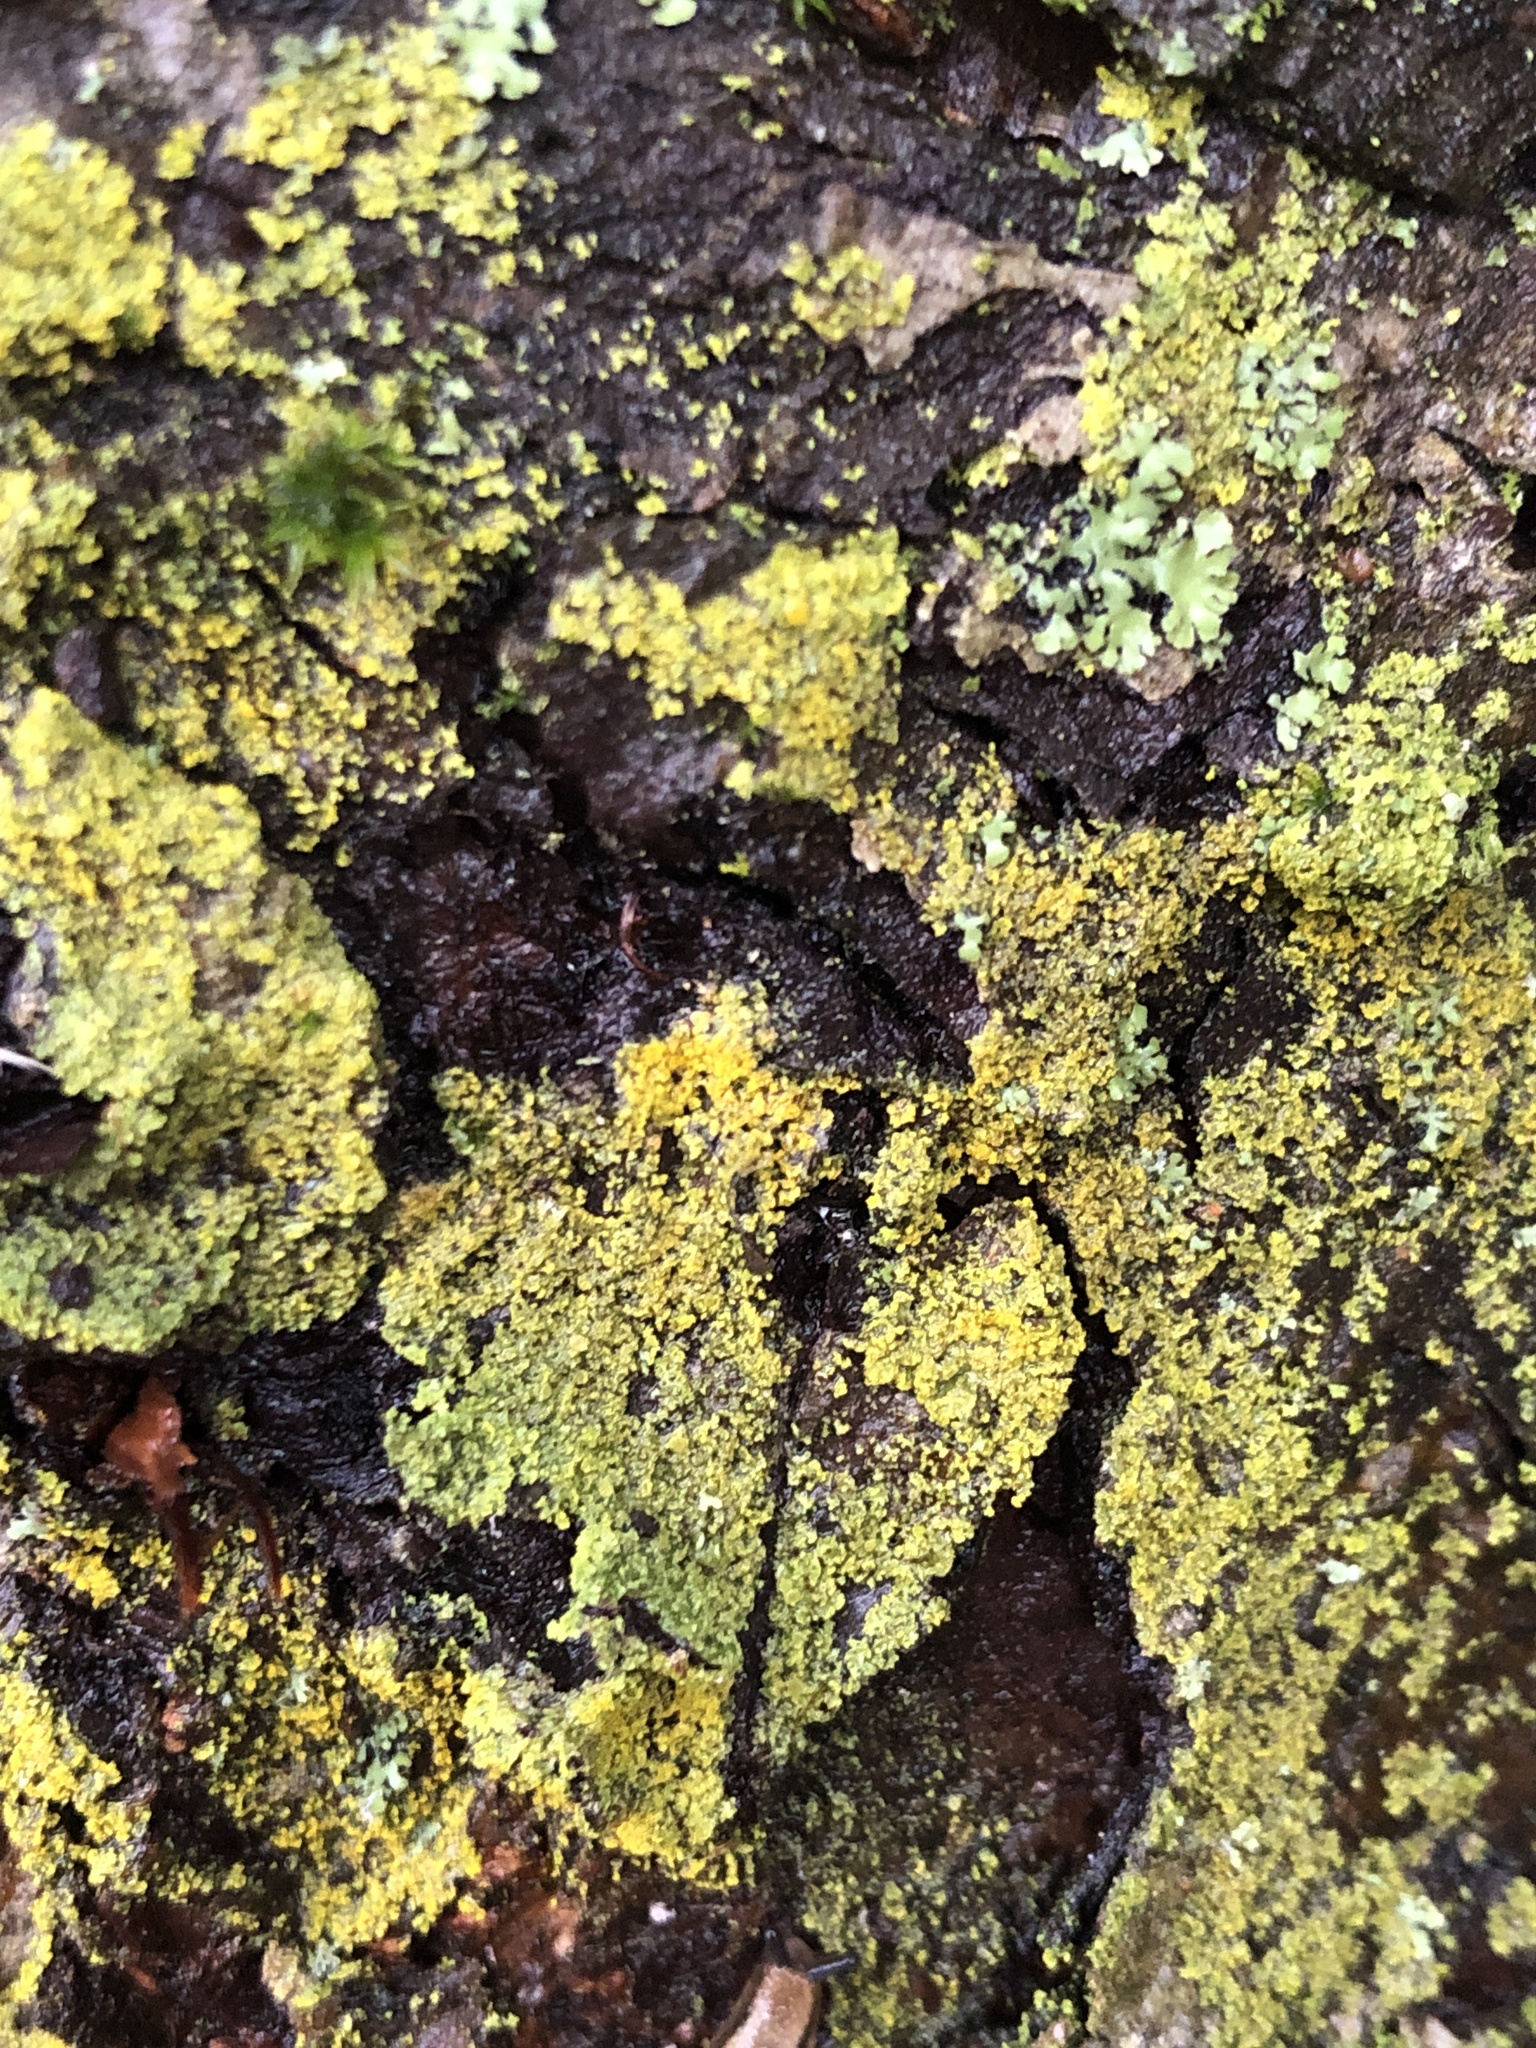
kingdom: Fungi
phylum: Ascomycota
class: Candelariomycetes
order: Candelariales
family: Candelariaceae
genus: Candelaria
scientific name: Candelaria concolor
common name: Candleflame lichen
